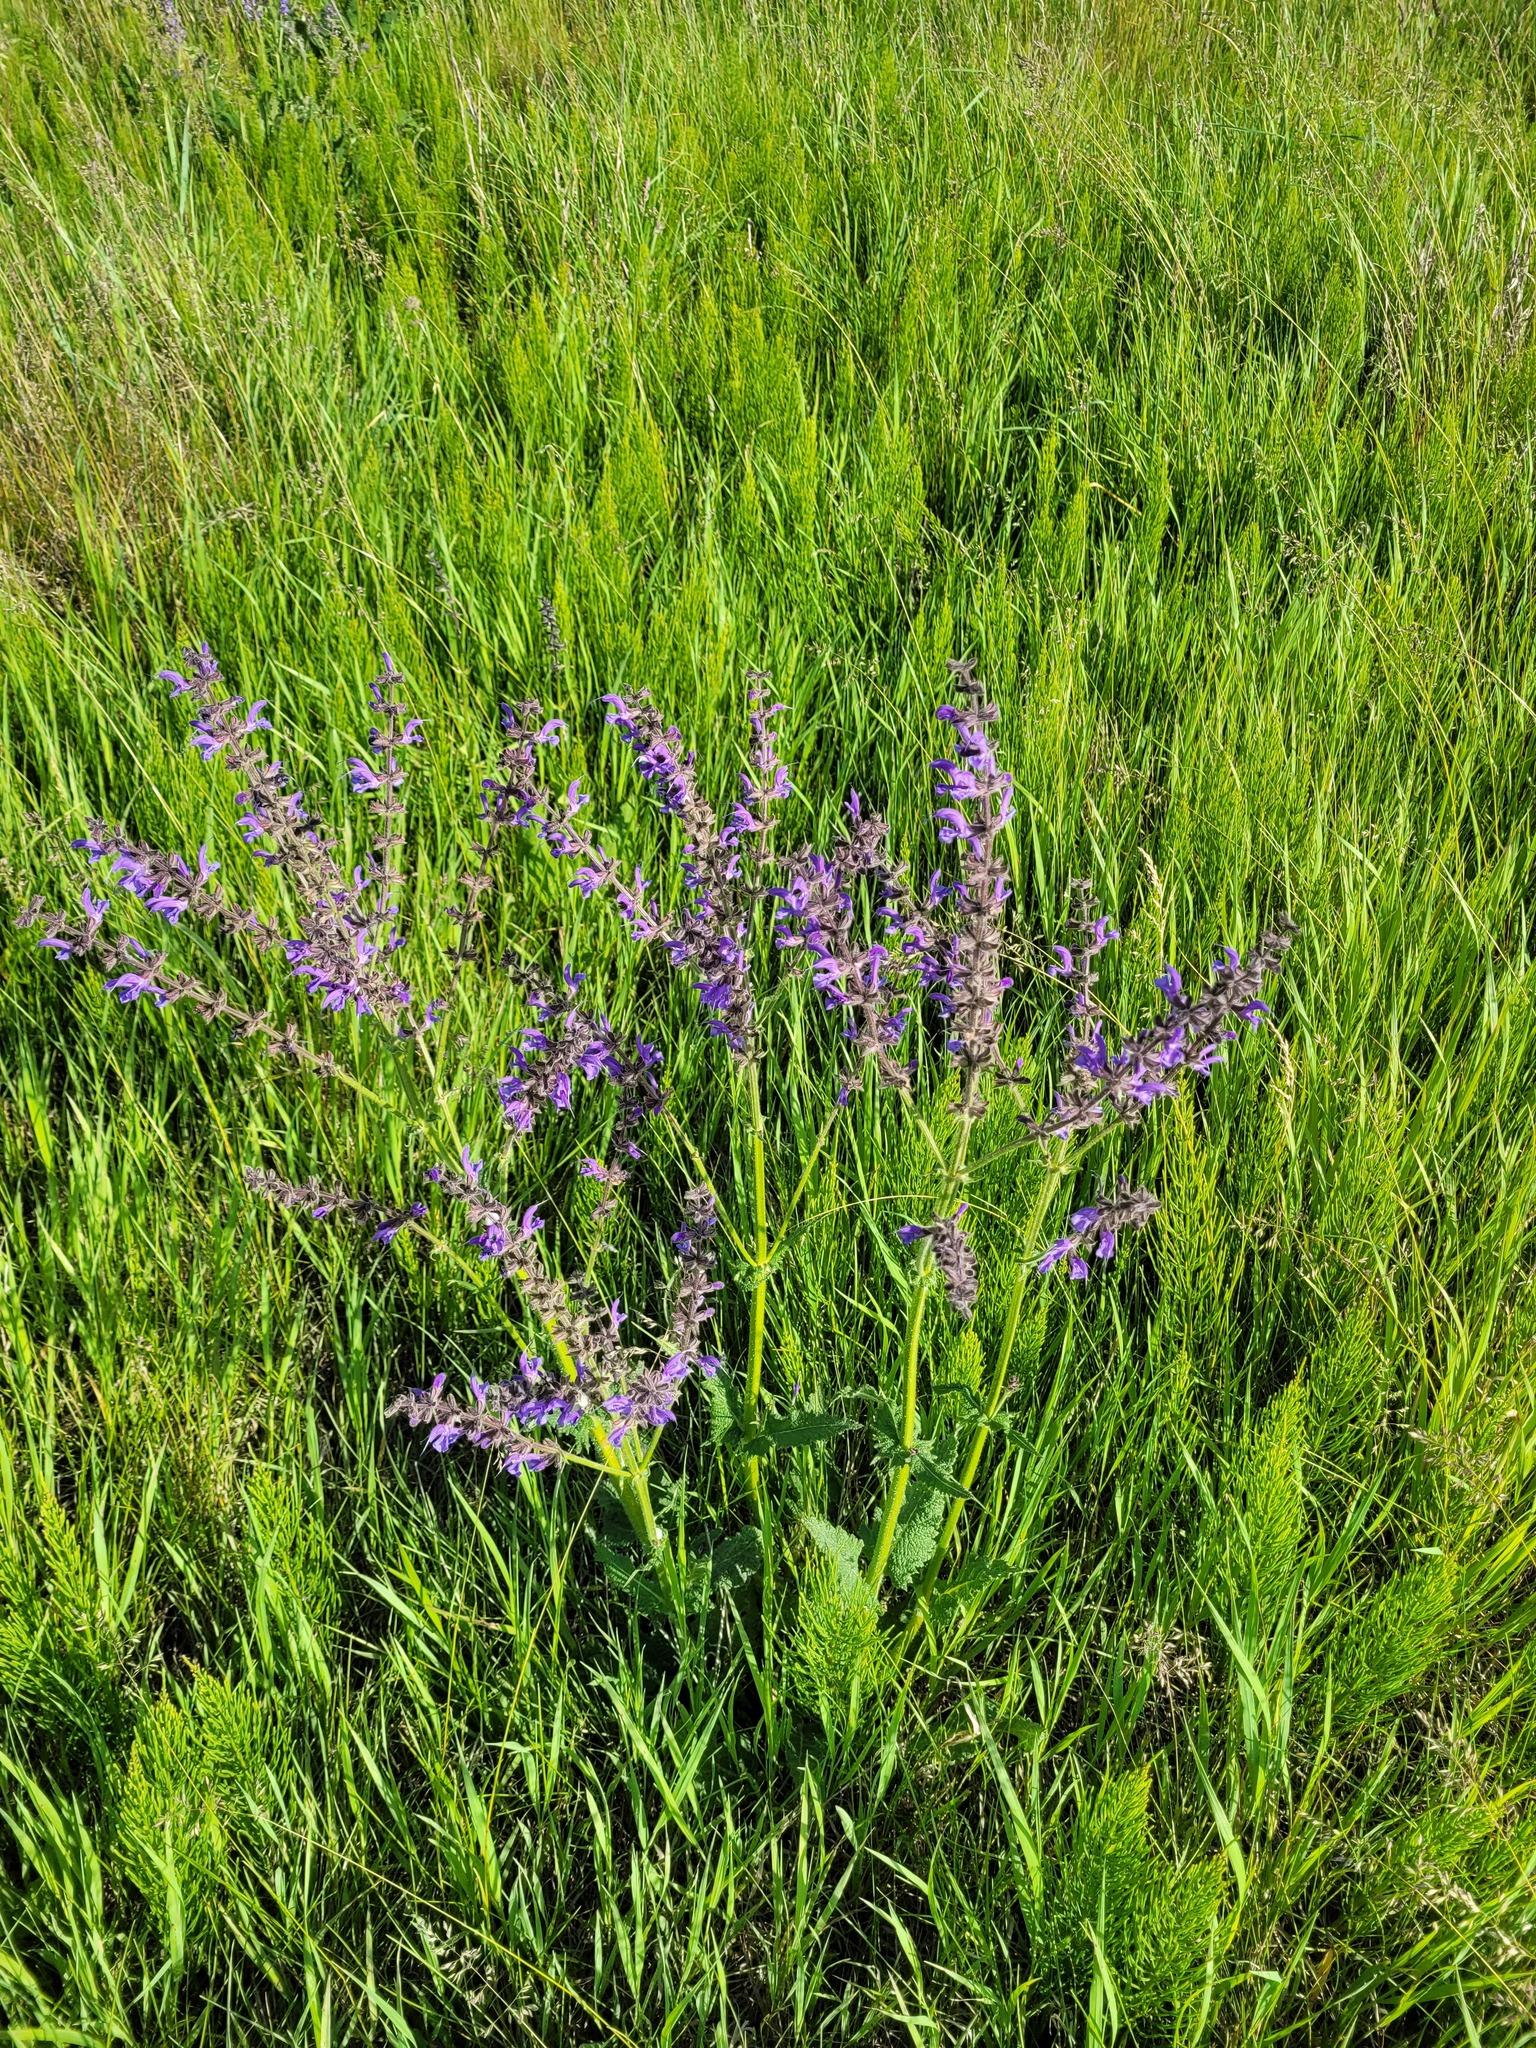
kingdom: Plantae
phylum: Tracheophyta
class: Magnoliopsida
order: Lamiales
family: Lamiaceae
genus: Salvia
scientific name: Salvia pratensis
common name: Meadow sage
